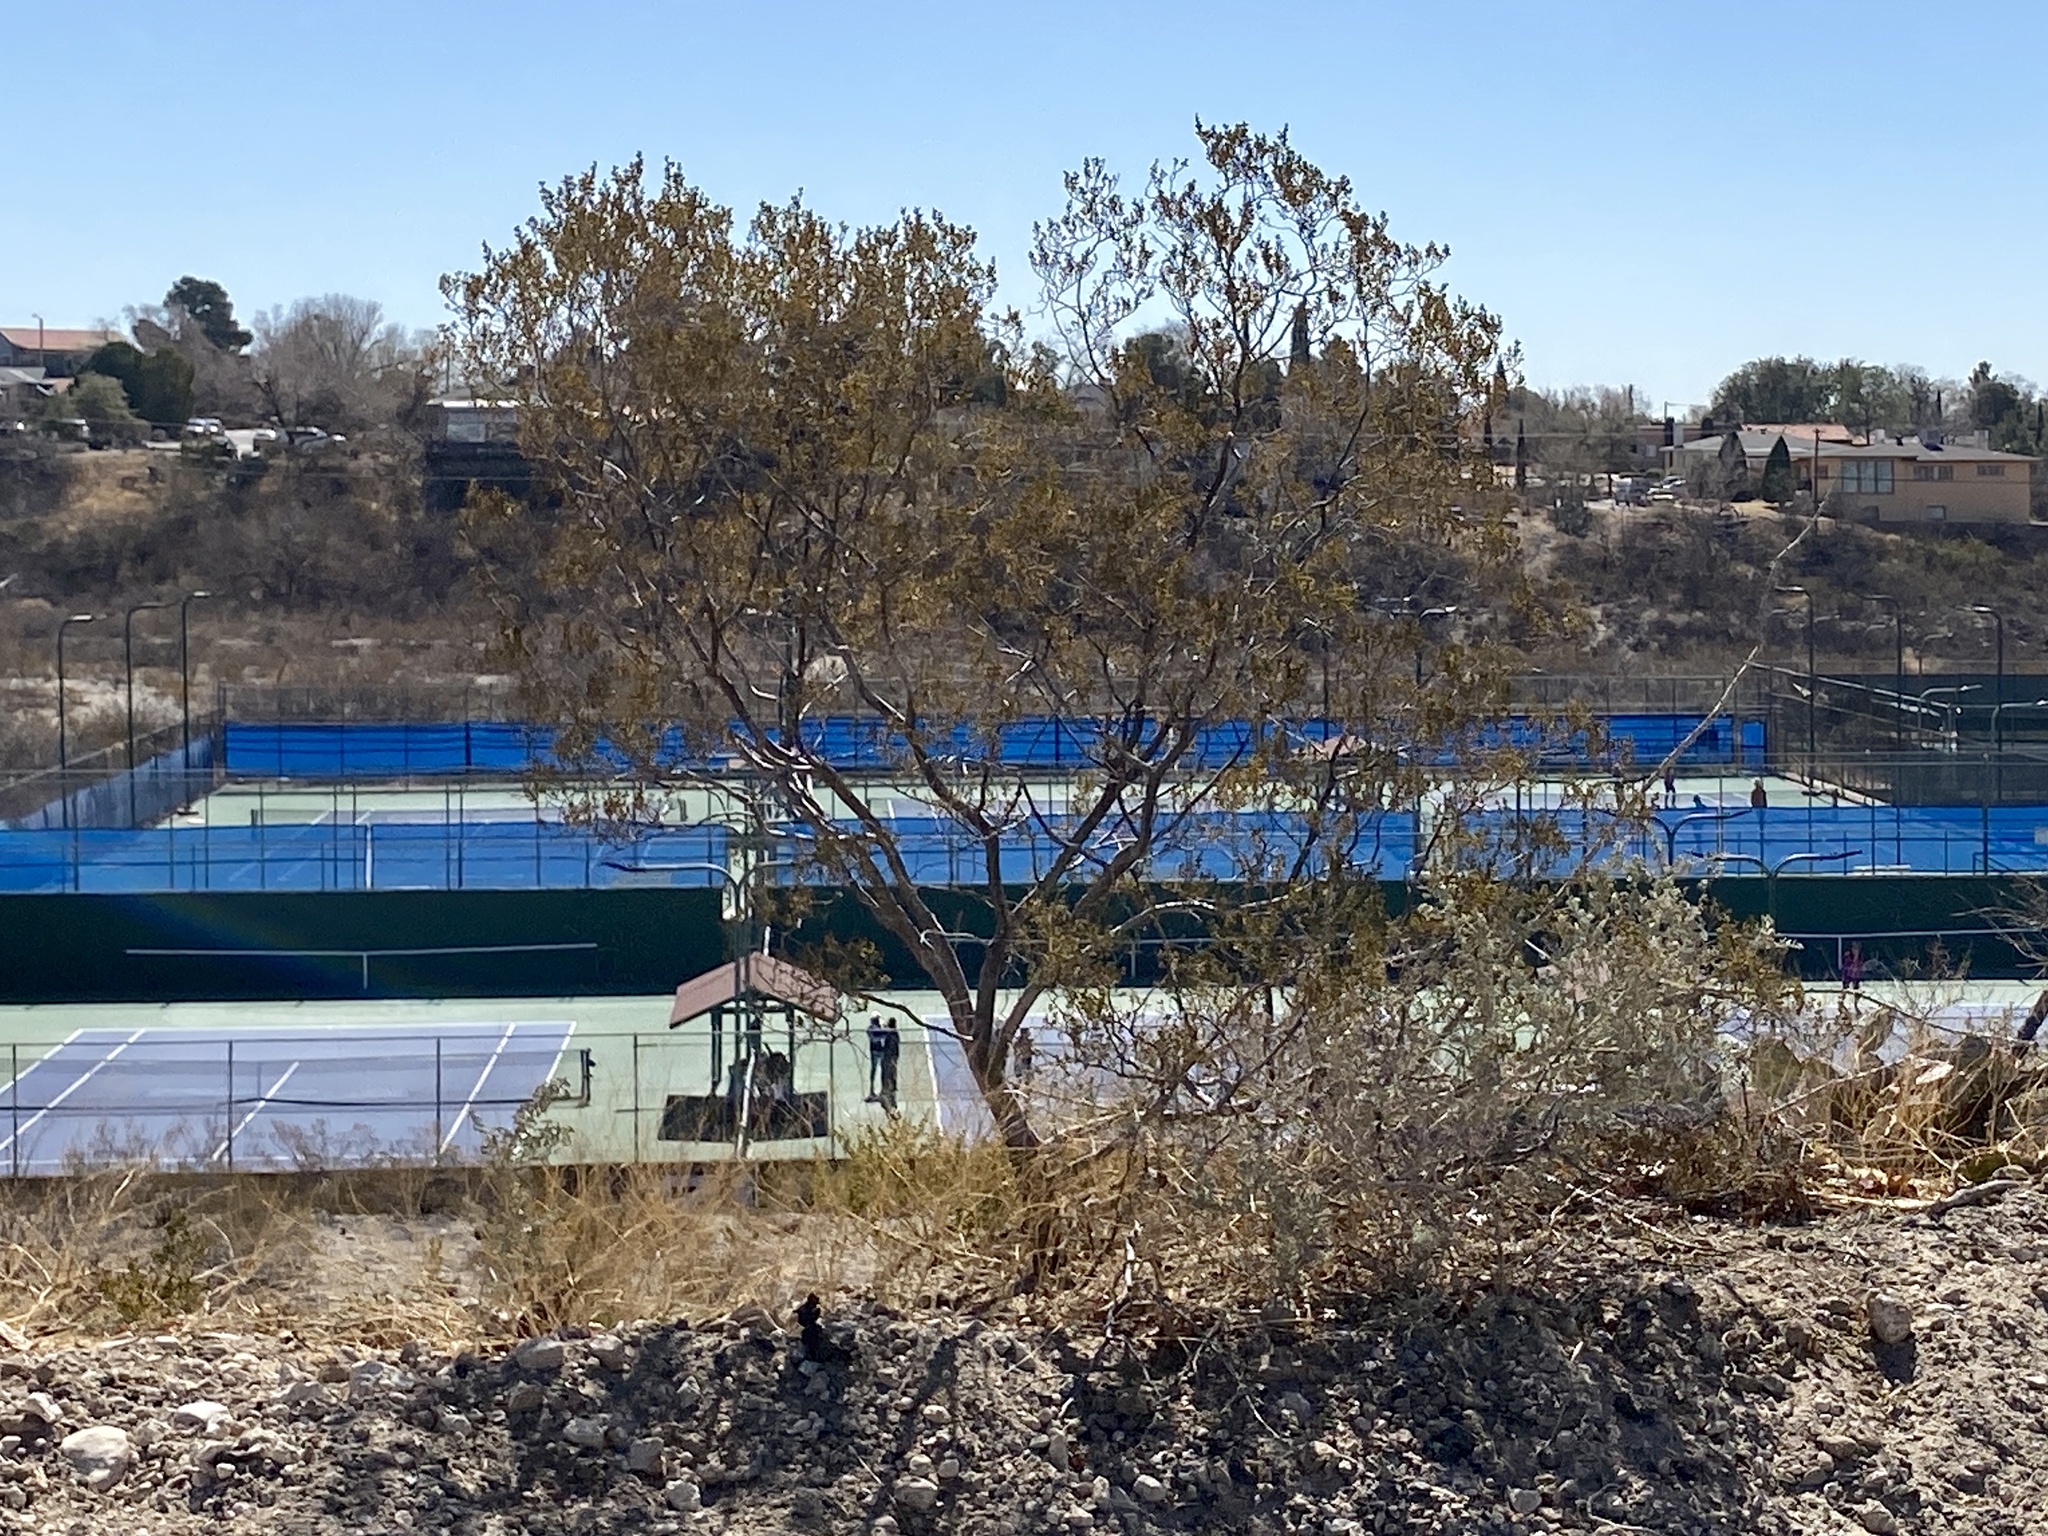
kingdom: Plantae
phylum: Tracheophyta
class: Magnoliopsida
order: Zygophyllales
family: Zygophyllaceae
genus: Larrea
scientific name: Larrea tridentata
